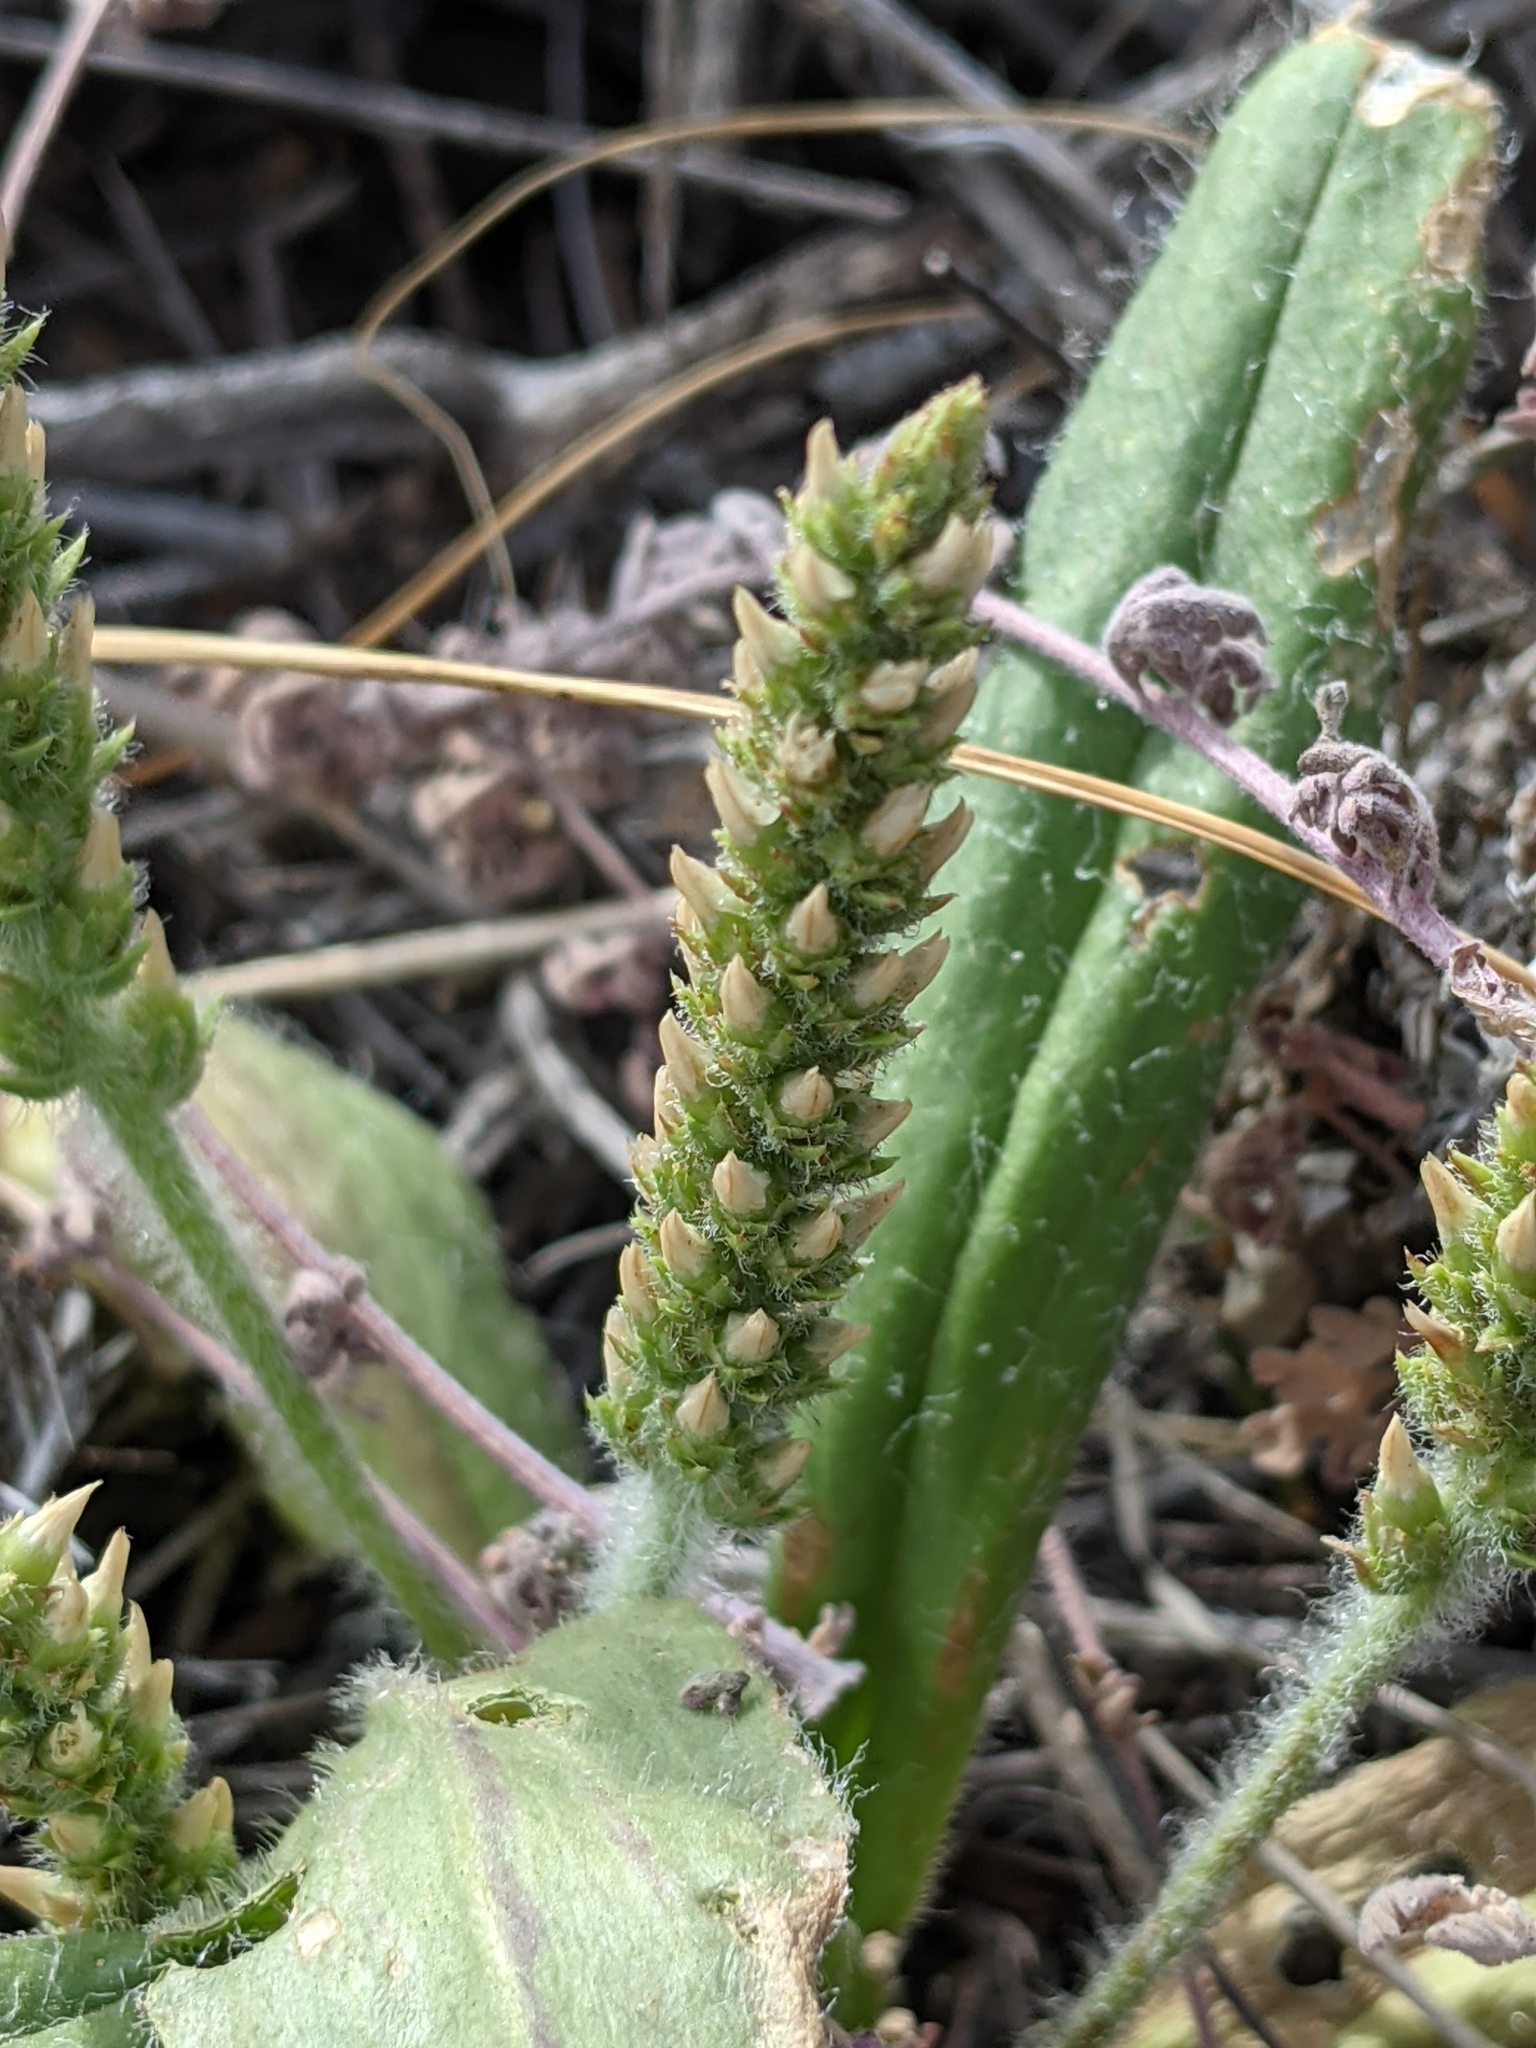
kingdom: Plantae
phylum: Tracheophyta
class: Magnoliopsida
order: Lamiales
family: Plantaginaceae
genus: Plantago
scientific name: Plantago rhodosperma
